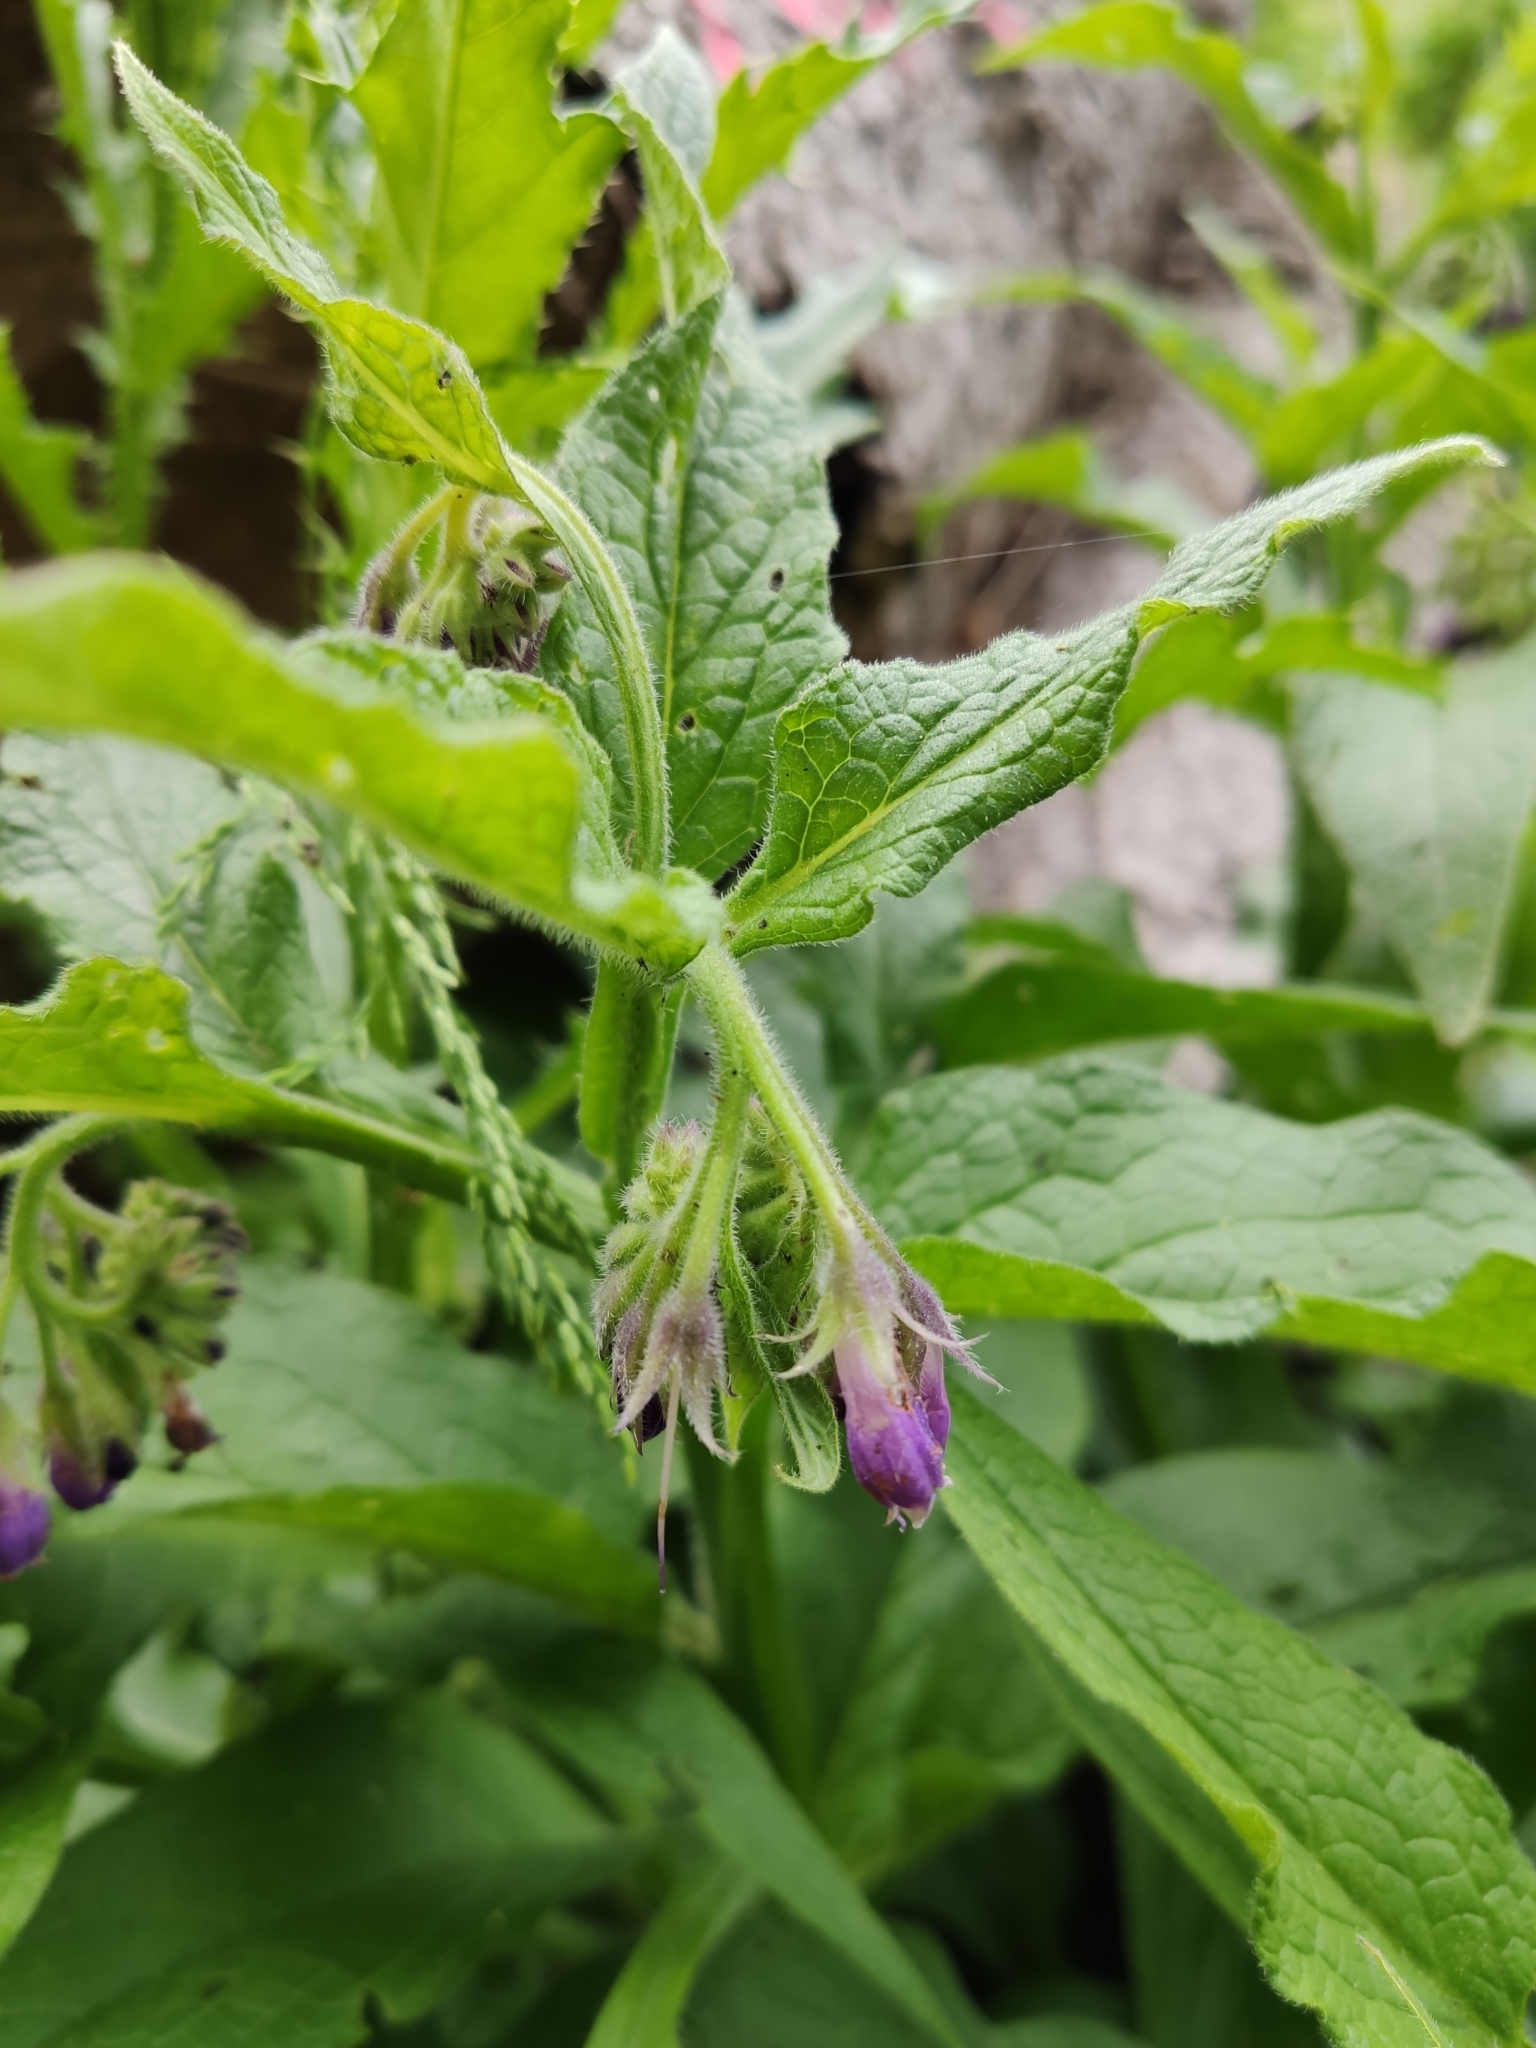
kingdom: Plantae
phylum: Tracheophyta
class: Magnoliopsida
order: Boraginales
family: Boraginaceae
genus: Symphytum
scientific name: Symphytum officinale
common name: Common comfrey
